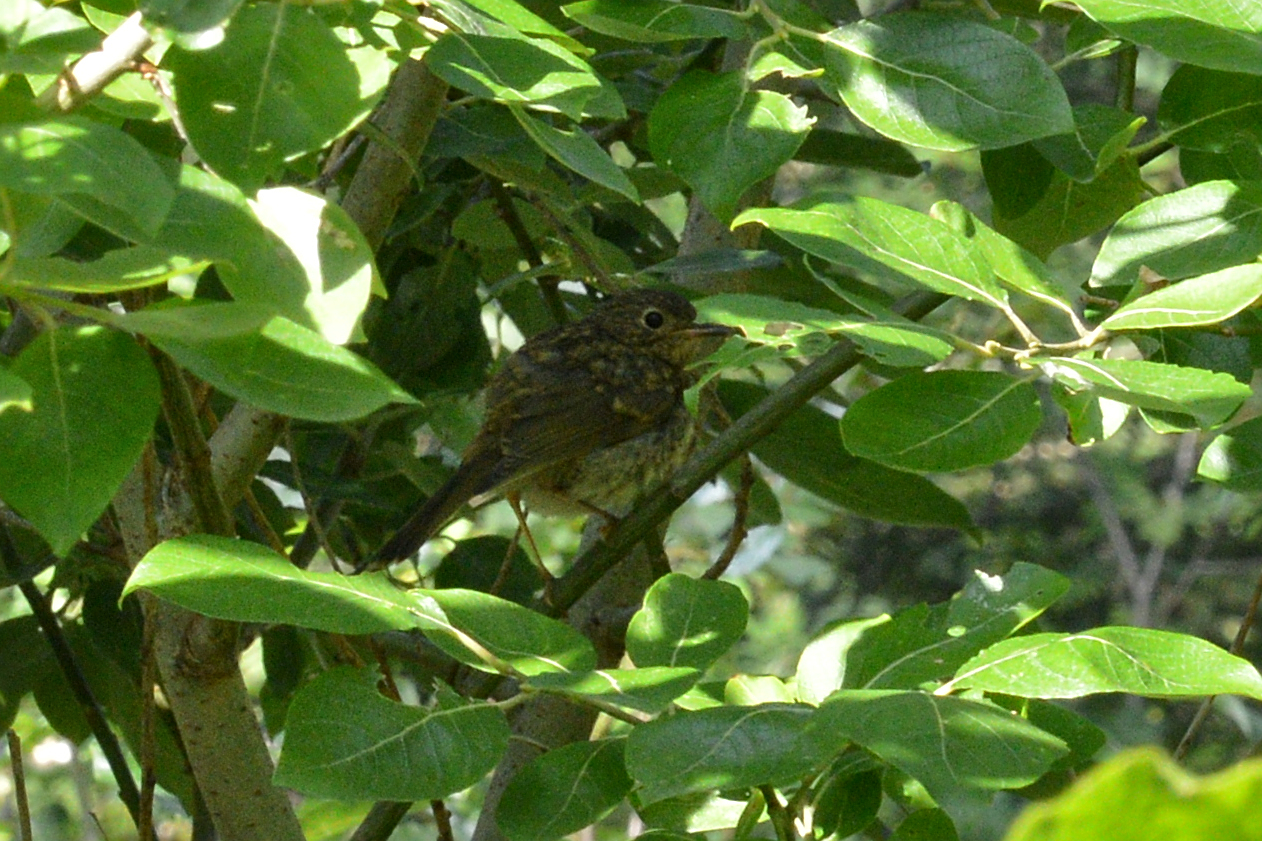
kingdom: Animalia
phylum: Chordata
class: Aves
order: Passeriformes
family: Muscicapidae
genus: Erithacus
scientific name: Erithacus rubecula
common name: European robin
